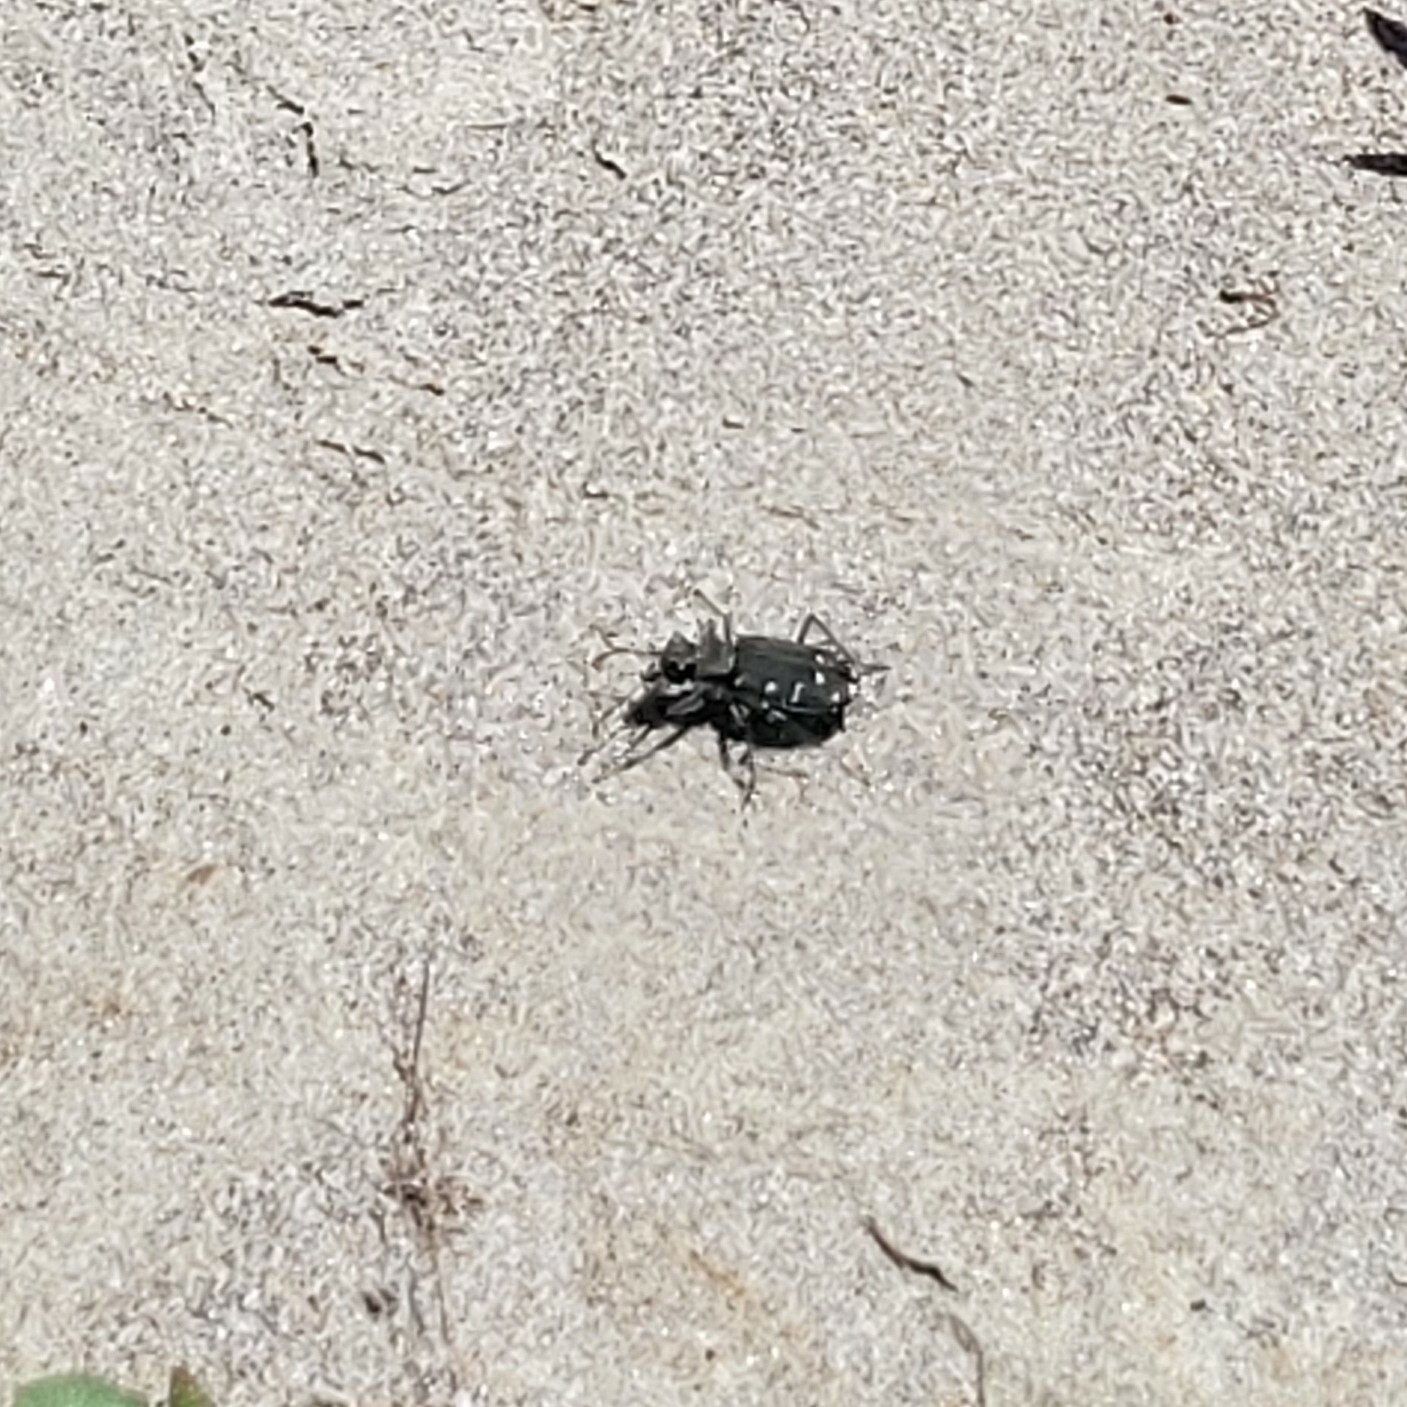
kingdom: Animalia
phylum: Arthropoda
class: Insecta
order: Coleoptera
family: Carabidae
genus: Cicindela
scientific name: Cicindela oregona
